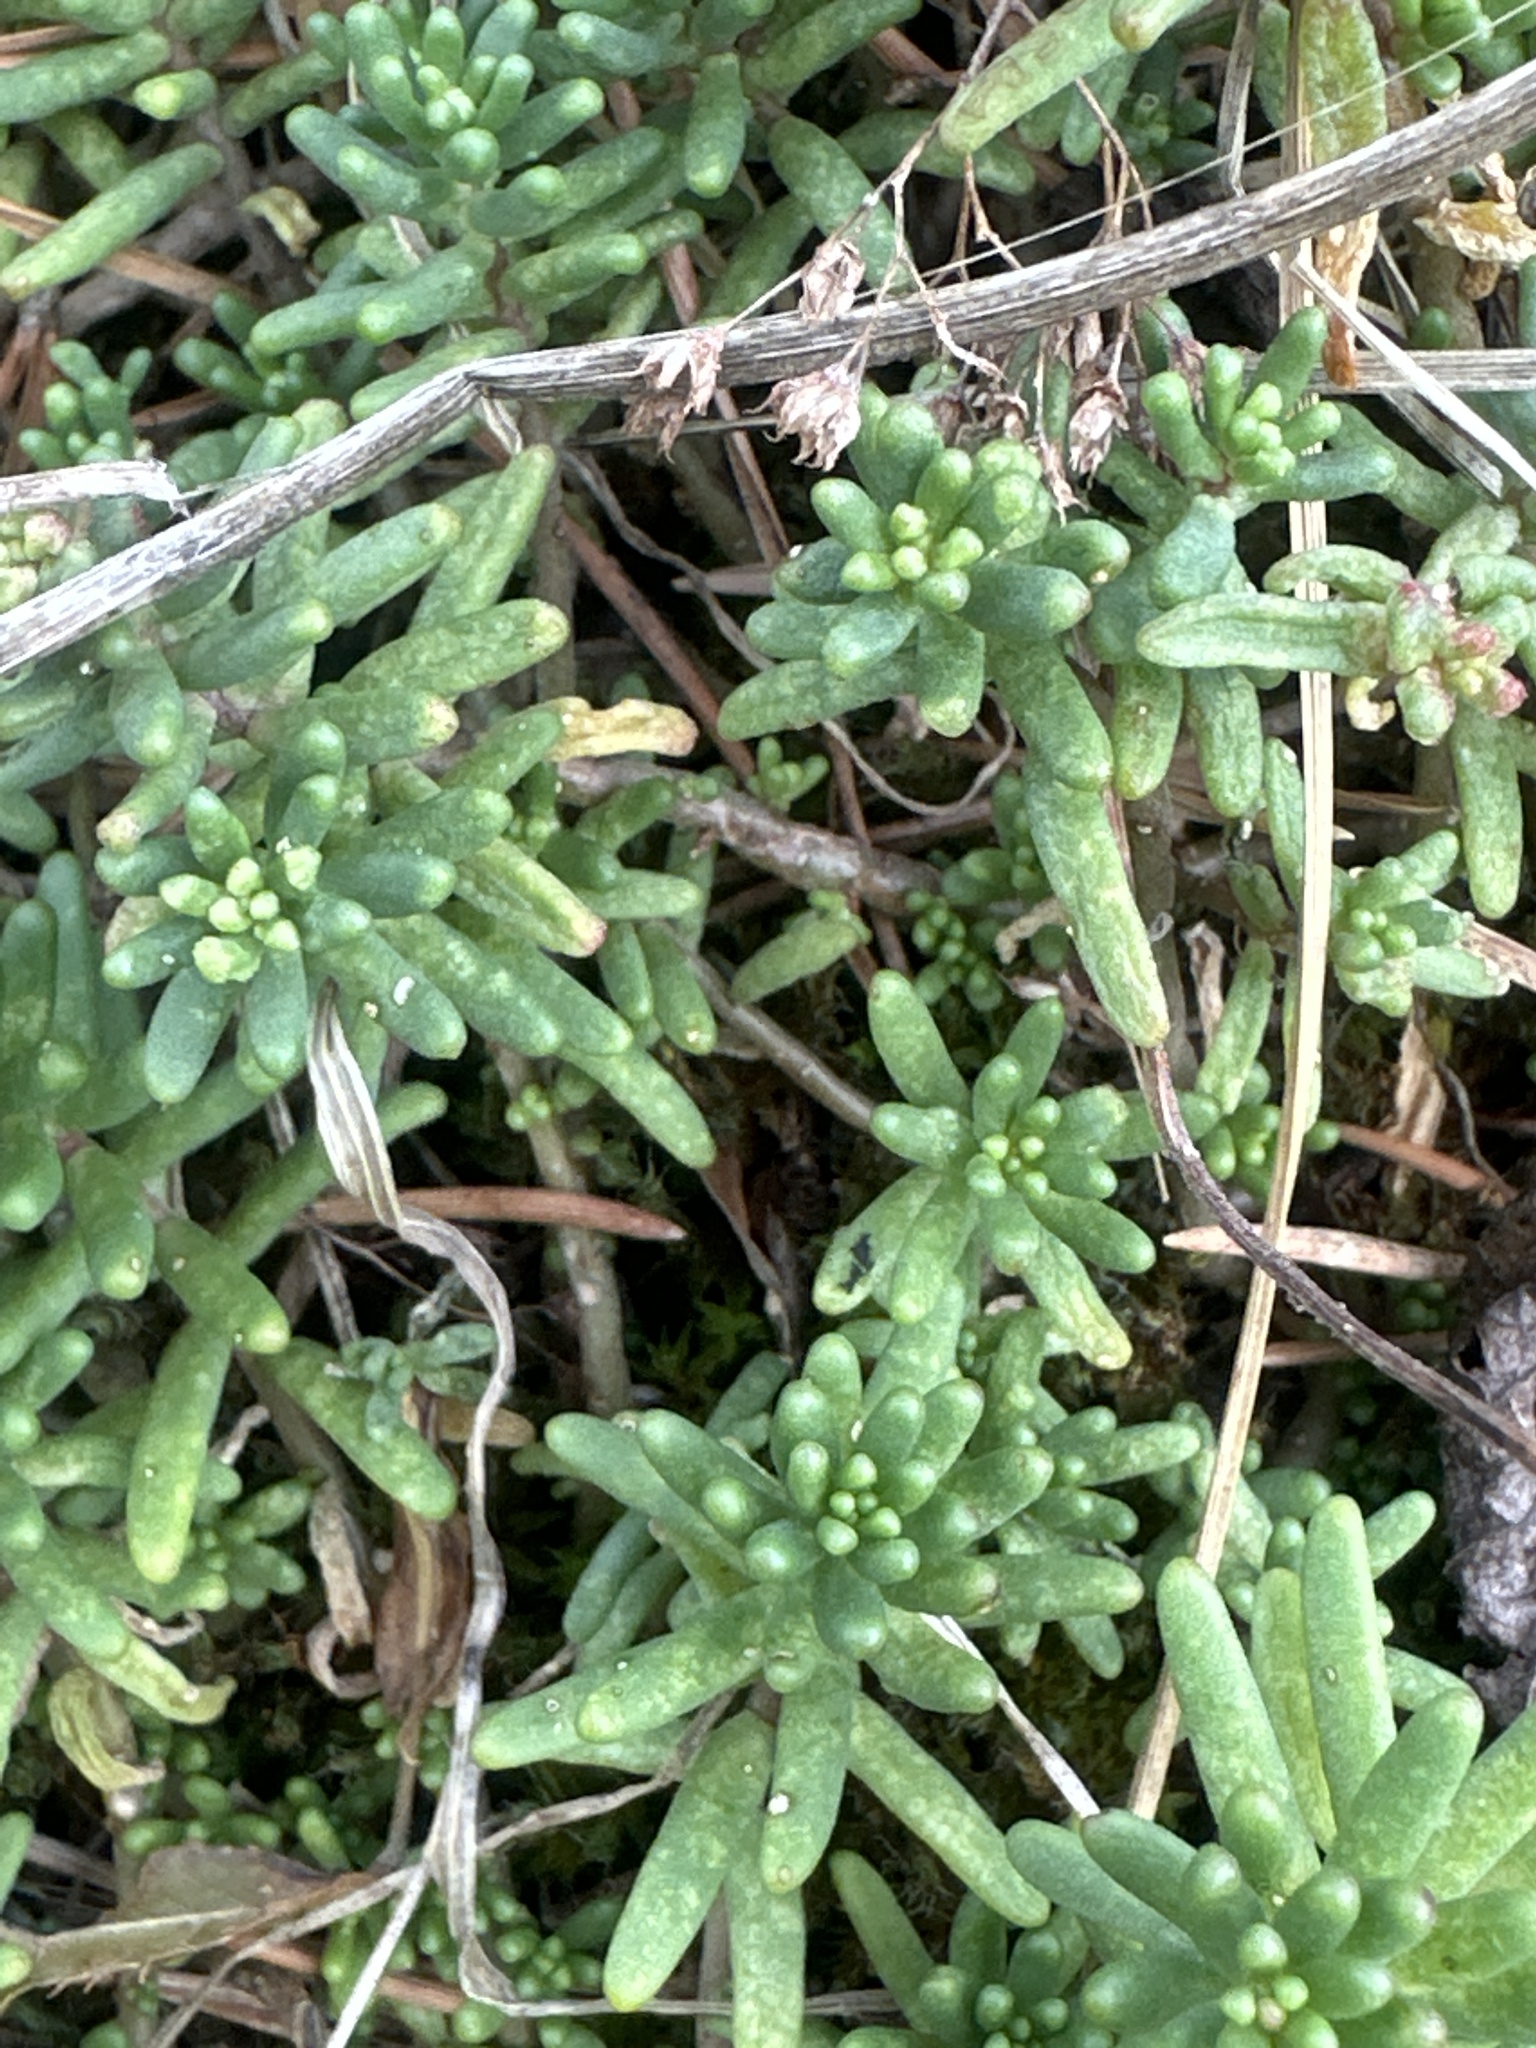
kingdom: Plantae
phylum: Tracheophyta
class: Magnoliopsida
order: Saxifragales
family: Crassulaceae
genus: Sedum
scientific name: Sedum album
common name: White stonecrop
